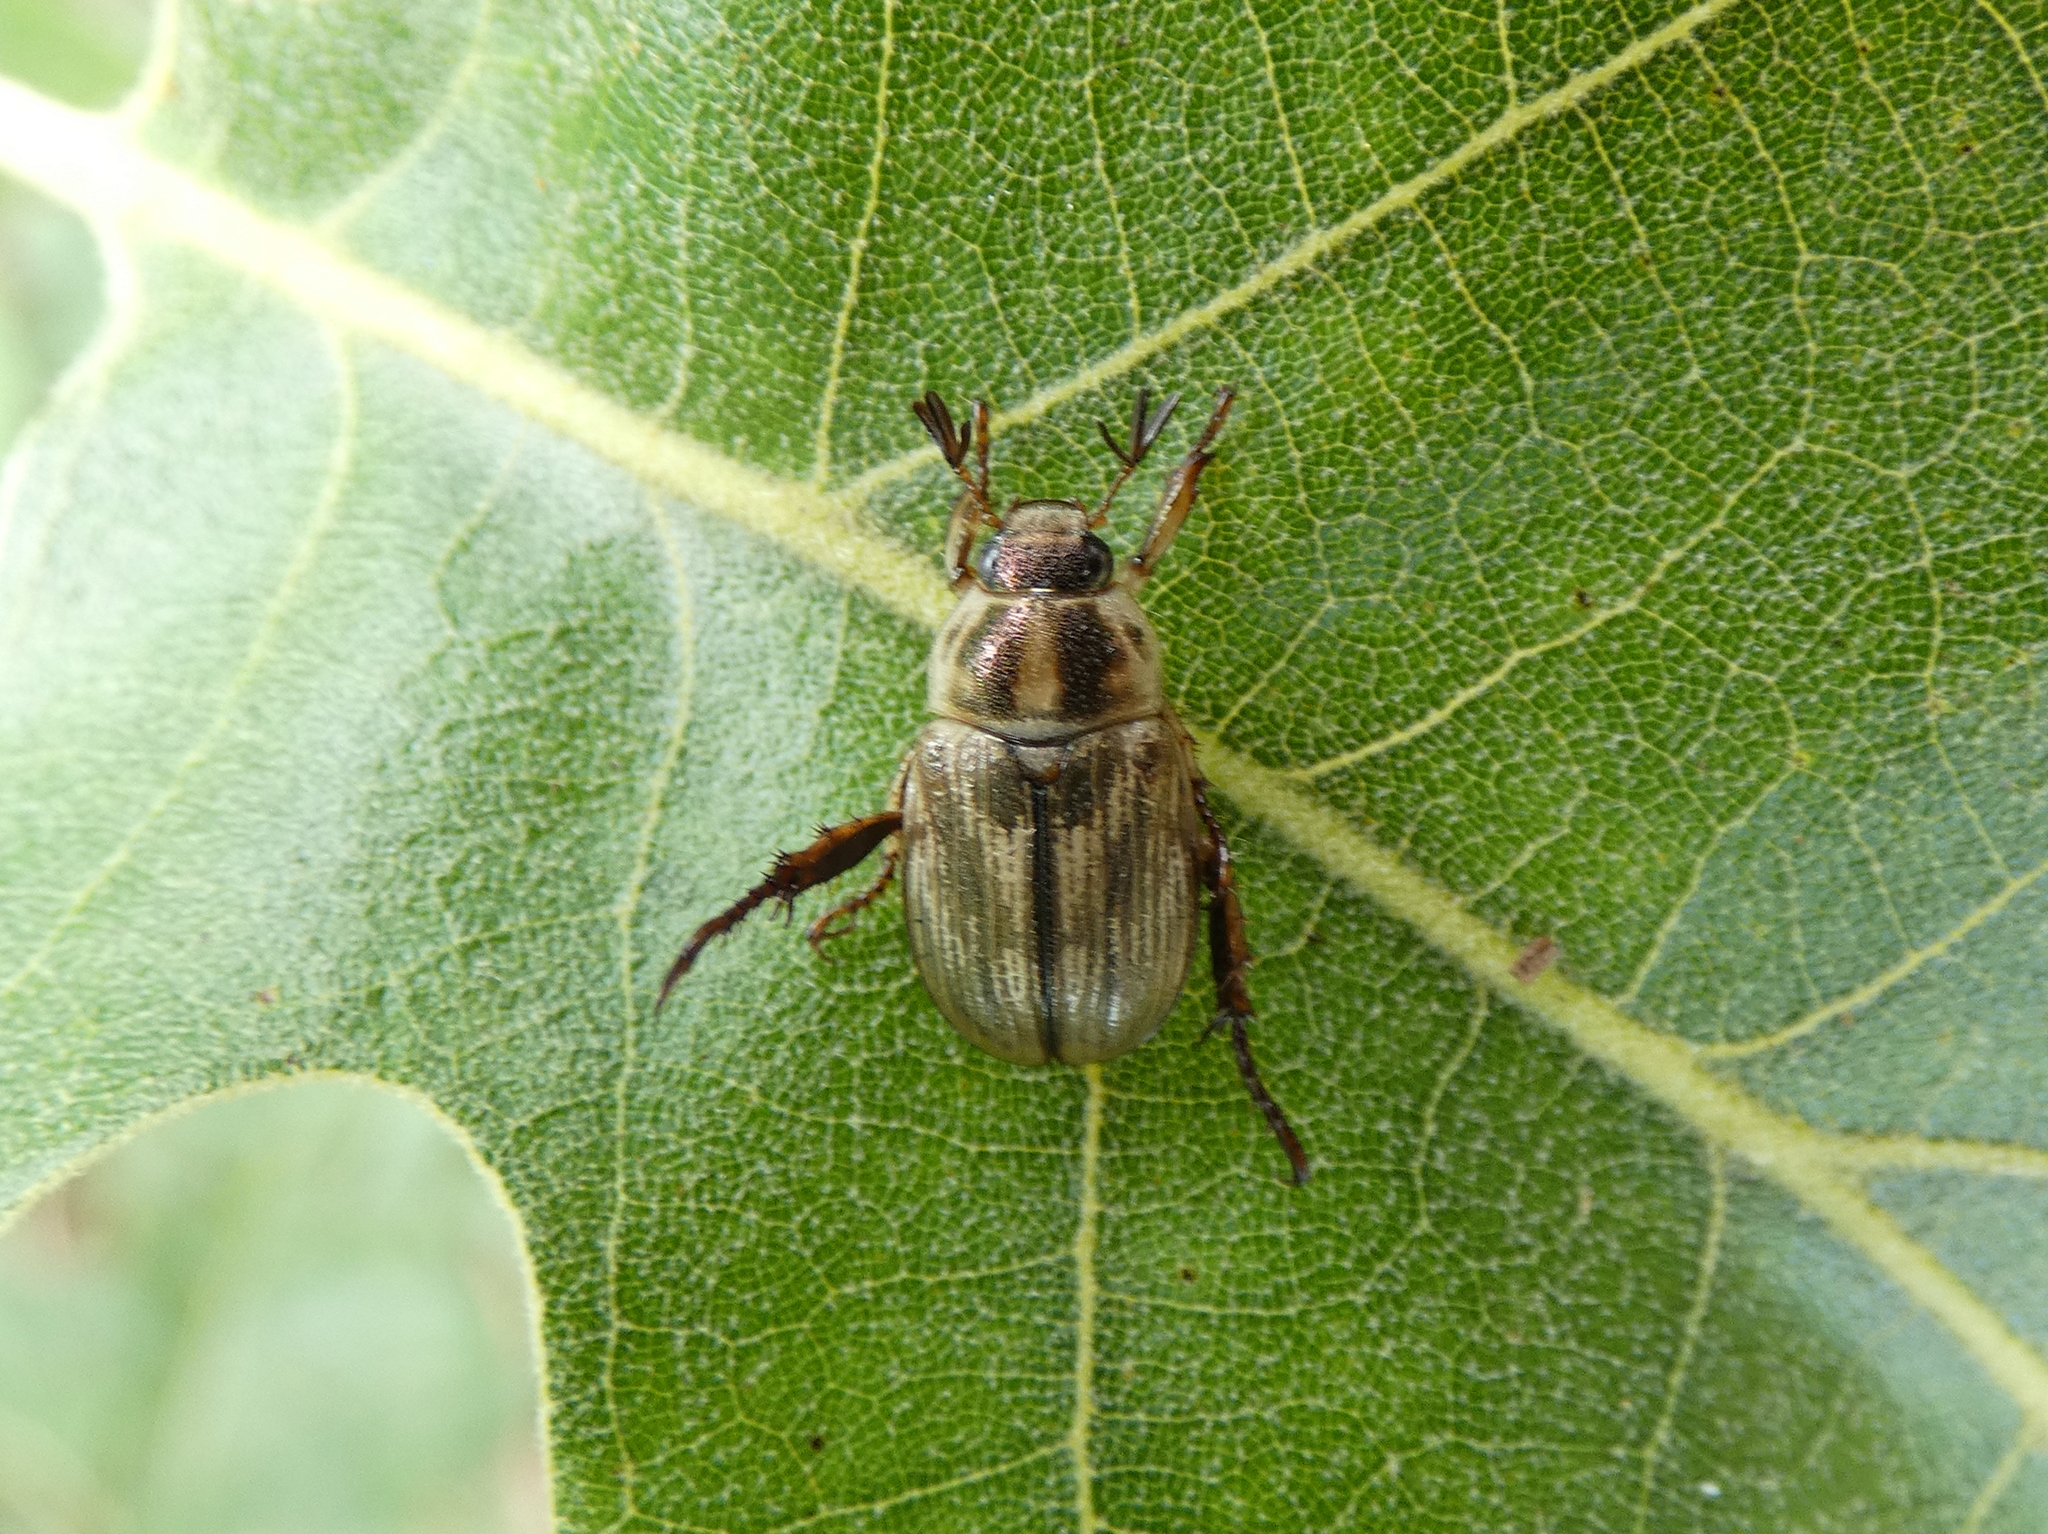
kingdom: Animalia
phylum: Arthropoda
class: Insecta
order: Coleoptera
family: Scarabaeidae
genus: Exomala
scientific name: Exomala orientalis
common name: Oriental beetle
